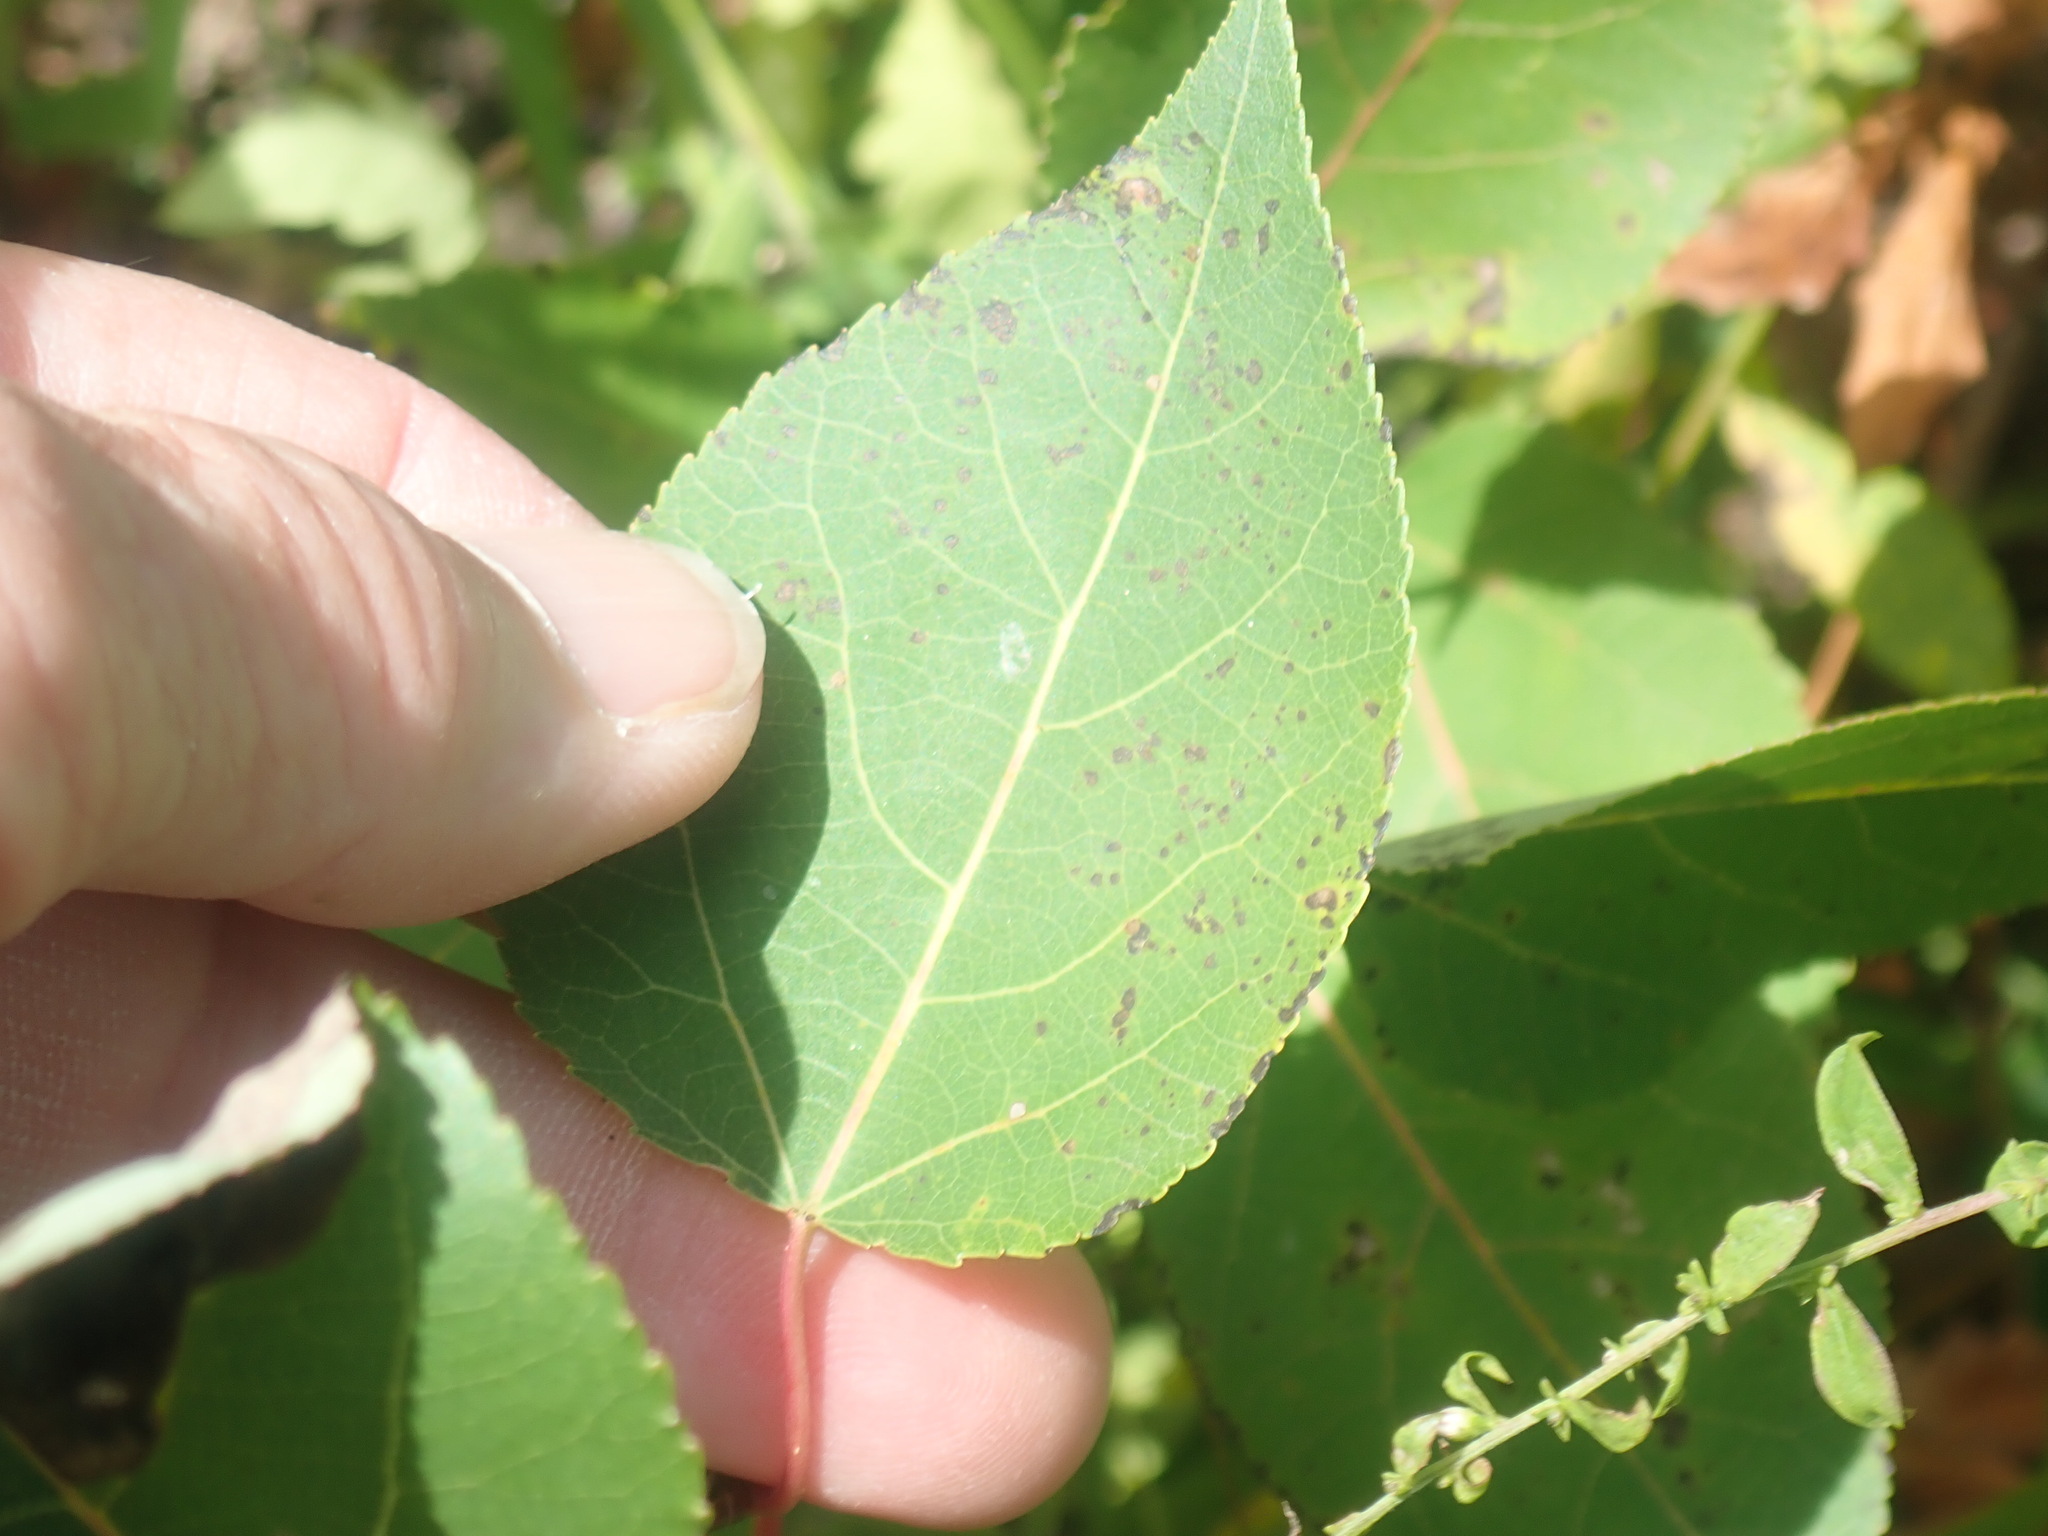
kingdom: Plantae
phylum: Tracheophyta
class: Magnoliopsida
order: Malpighiales
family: Salicaceae
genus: Populus
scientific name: Populus tremuloides
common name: Quaking aspen
